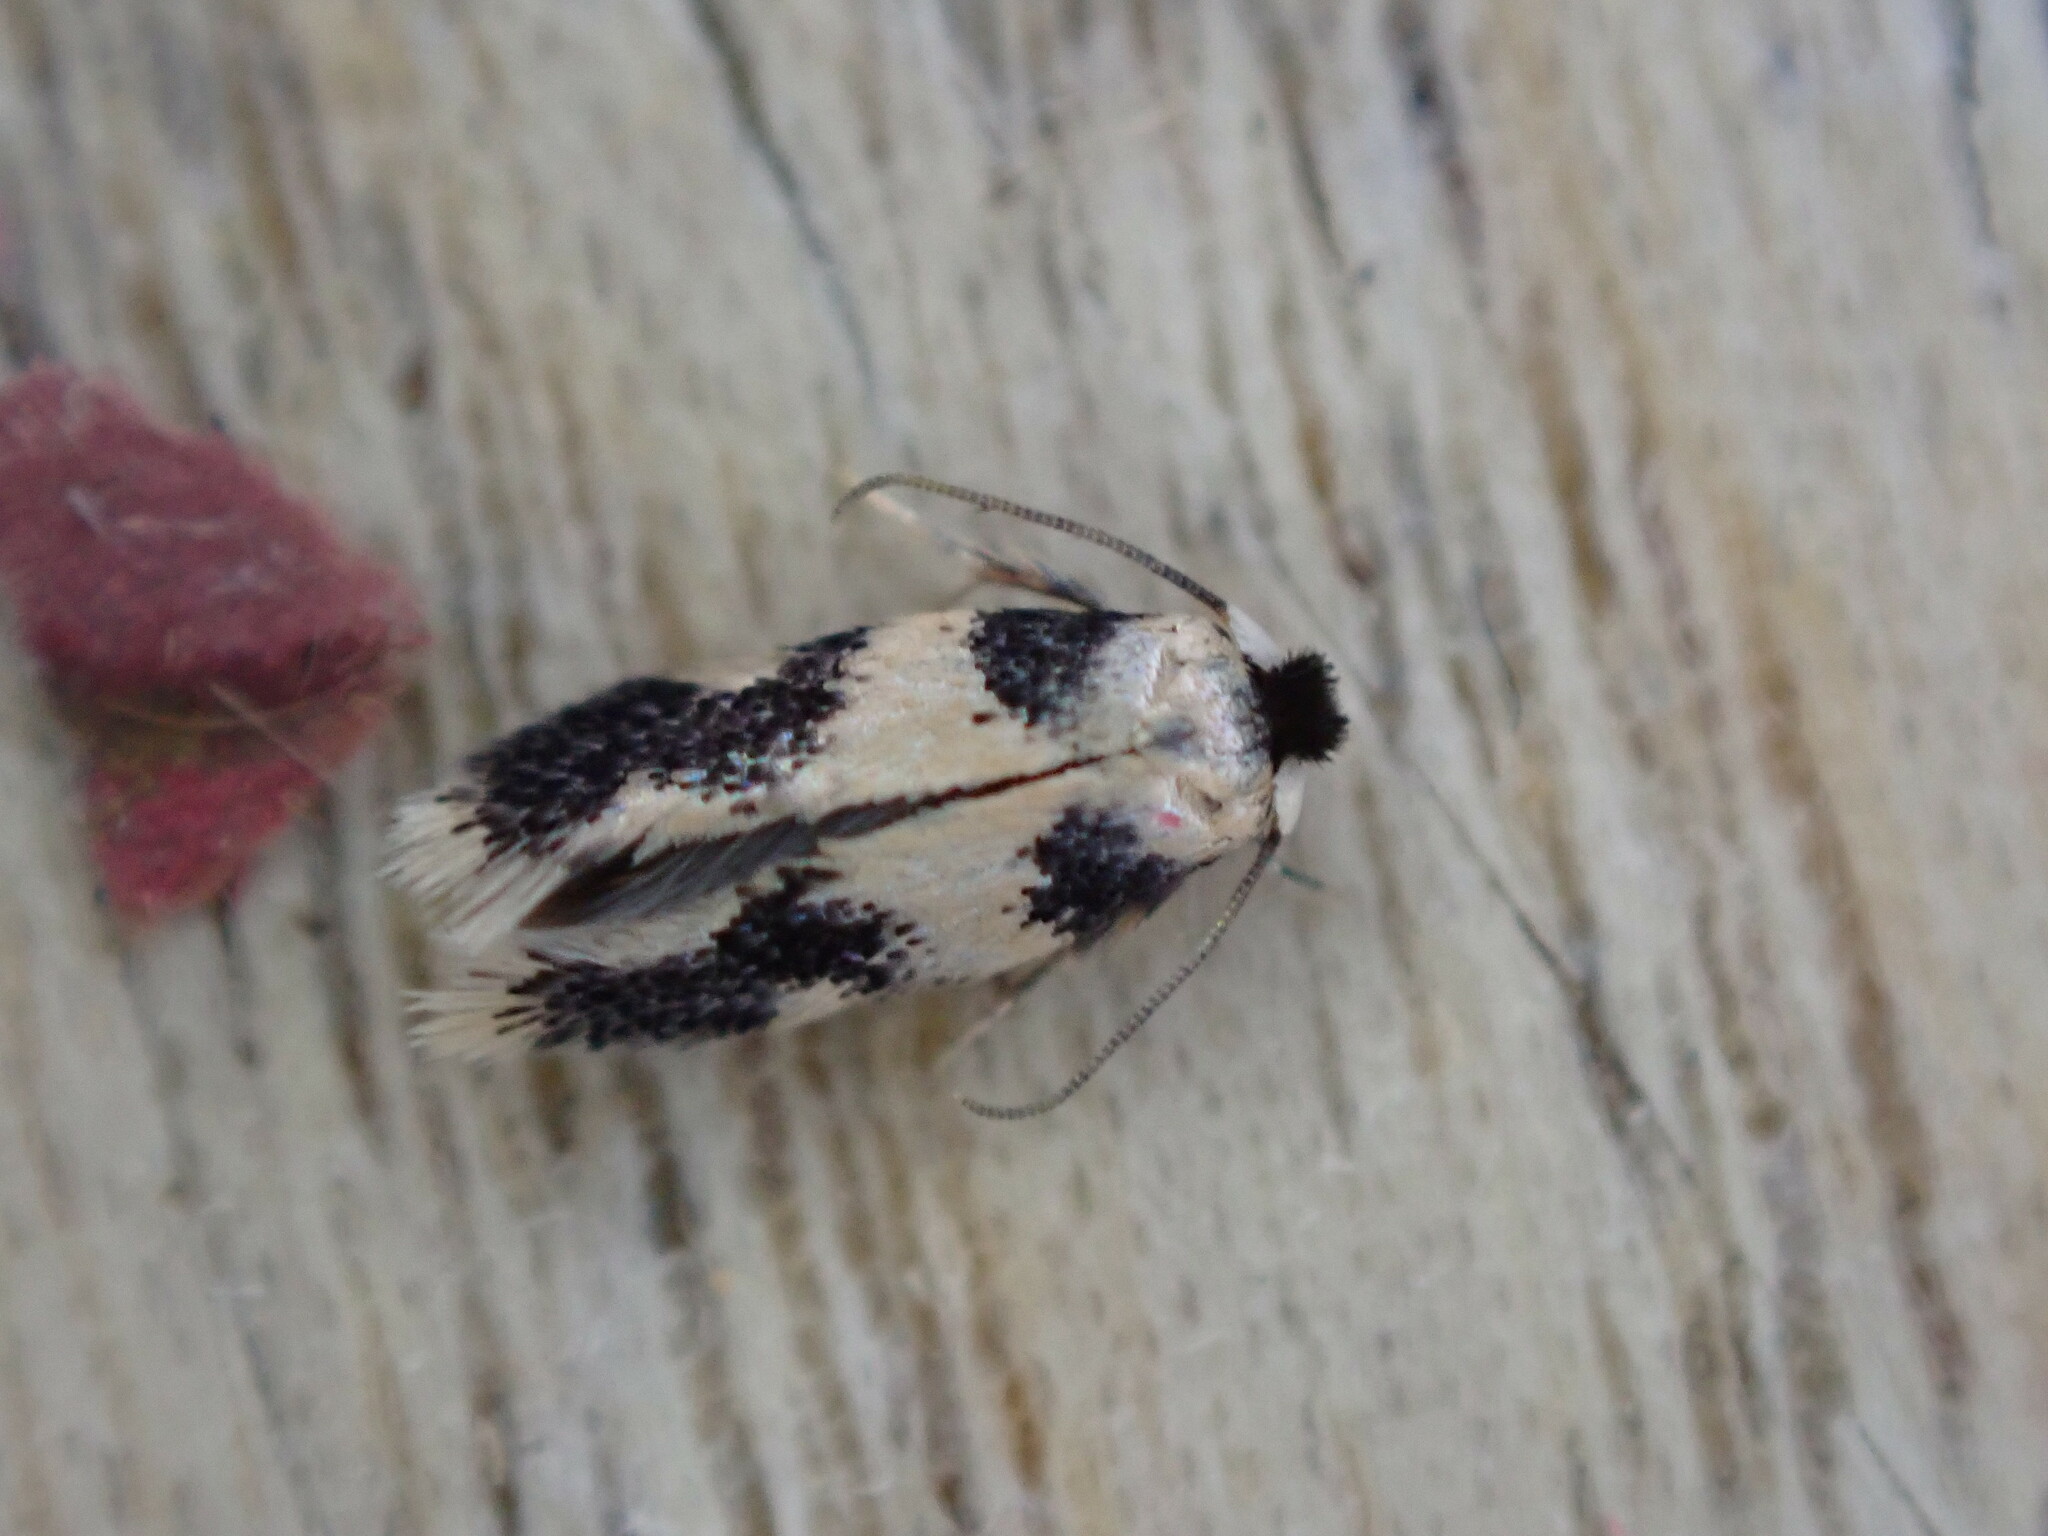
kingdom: Animalia
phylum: Arthropoda
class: Insecta
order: Lepidoptera
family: Nepticulidae
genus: Etainia
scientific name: Etainia decentella
